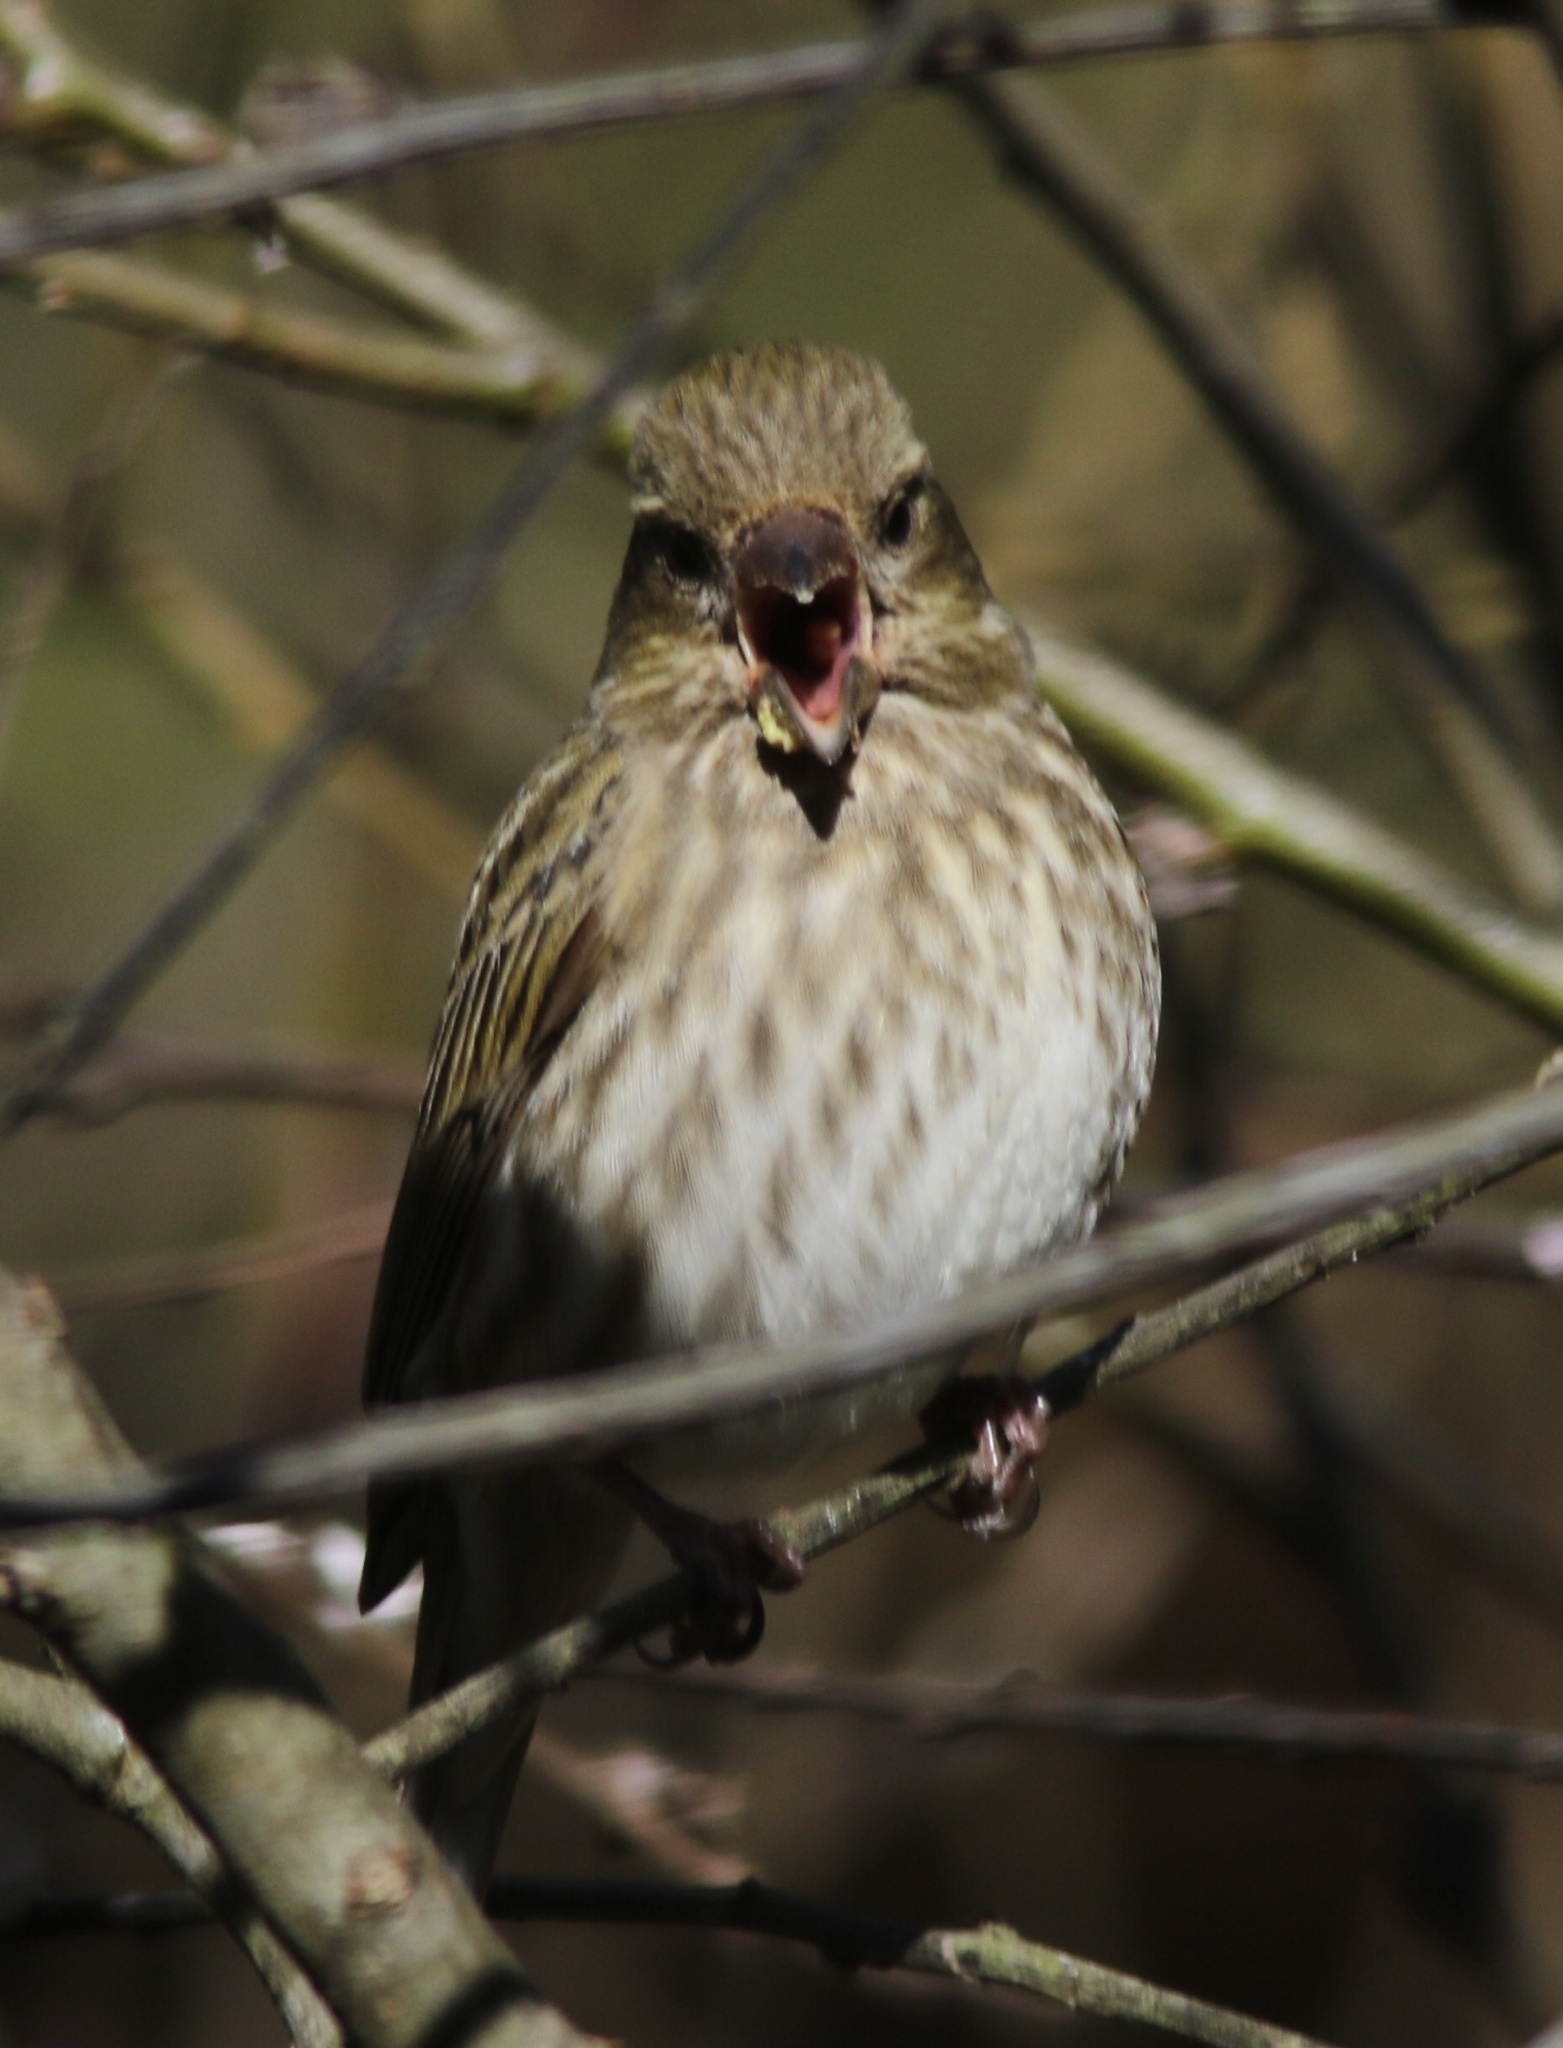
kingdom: Animalia
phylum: Chordata
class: Aves
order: Passeriformes
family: Fringillidae
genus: Haemorhous
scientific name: Haemorhous purpureus
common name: Purple finch
